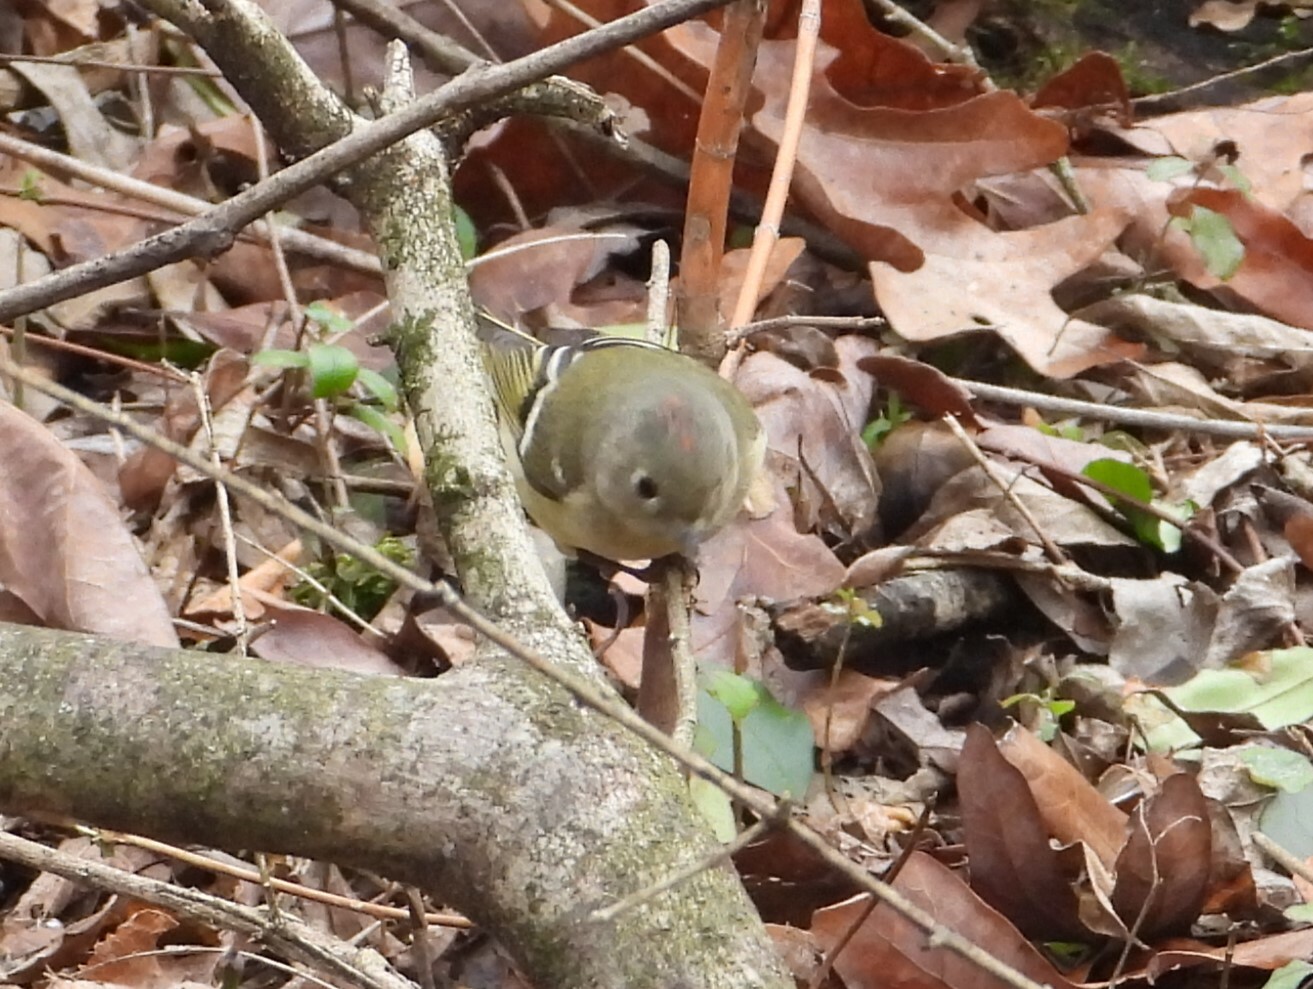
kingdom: Animalia
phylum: Chordata
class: Aves
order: Passeriformes
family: Regulidae
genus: Regulus
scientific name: Regulus calendula
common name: Ruby-crowned kinglet
